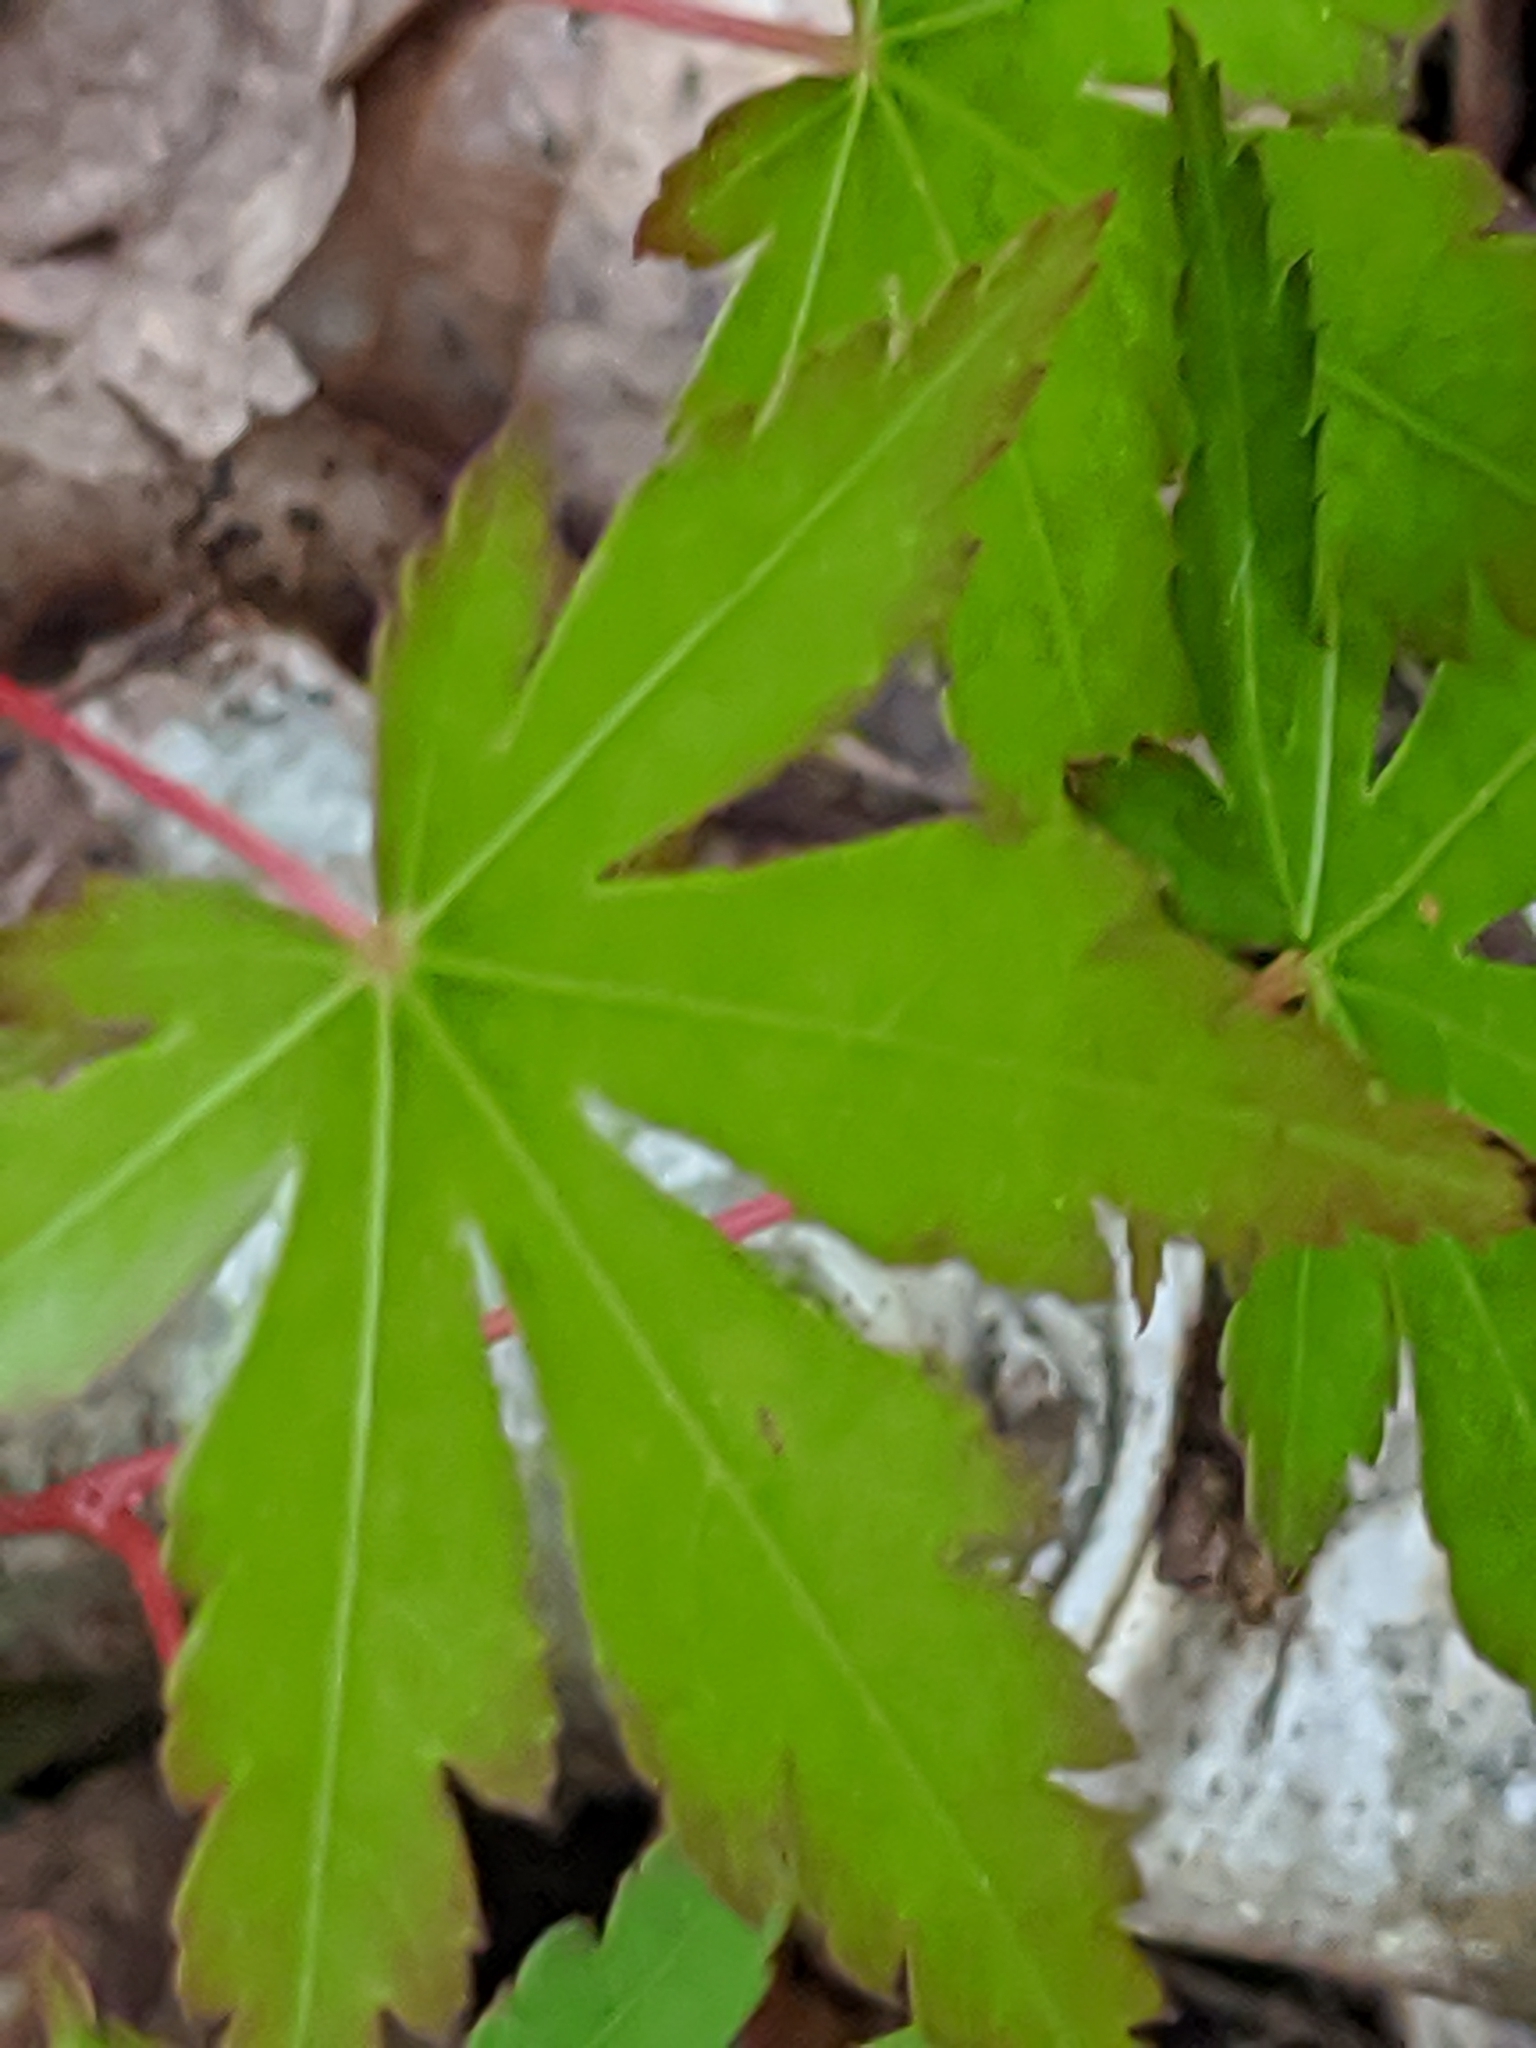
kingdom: Plantae
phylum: Tracheophyta
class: Magnoliopsida
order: Sapindales
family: Sapindaceae
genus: Acer
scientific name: Acer palmatum
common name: Japanese maple
